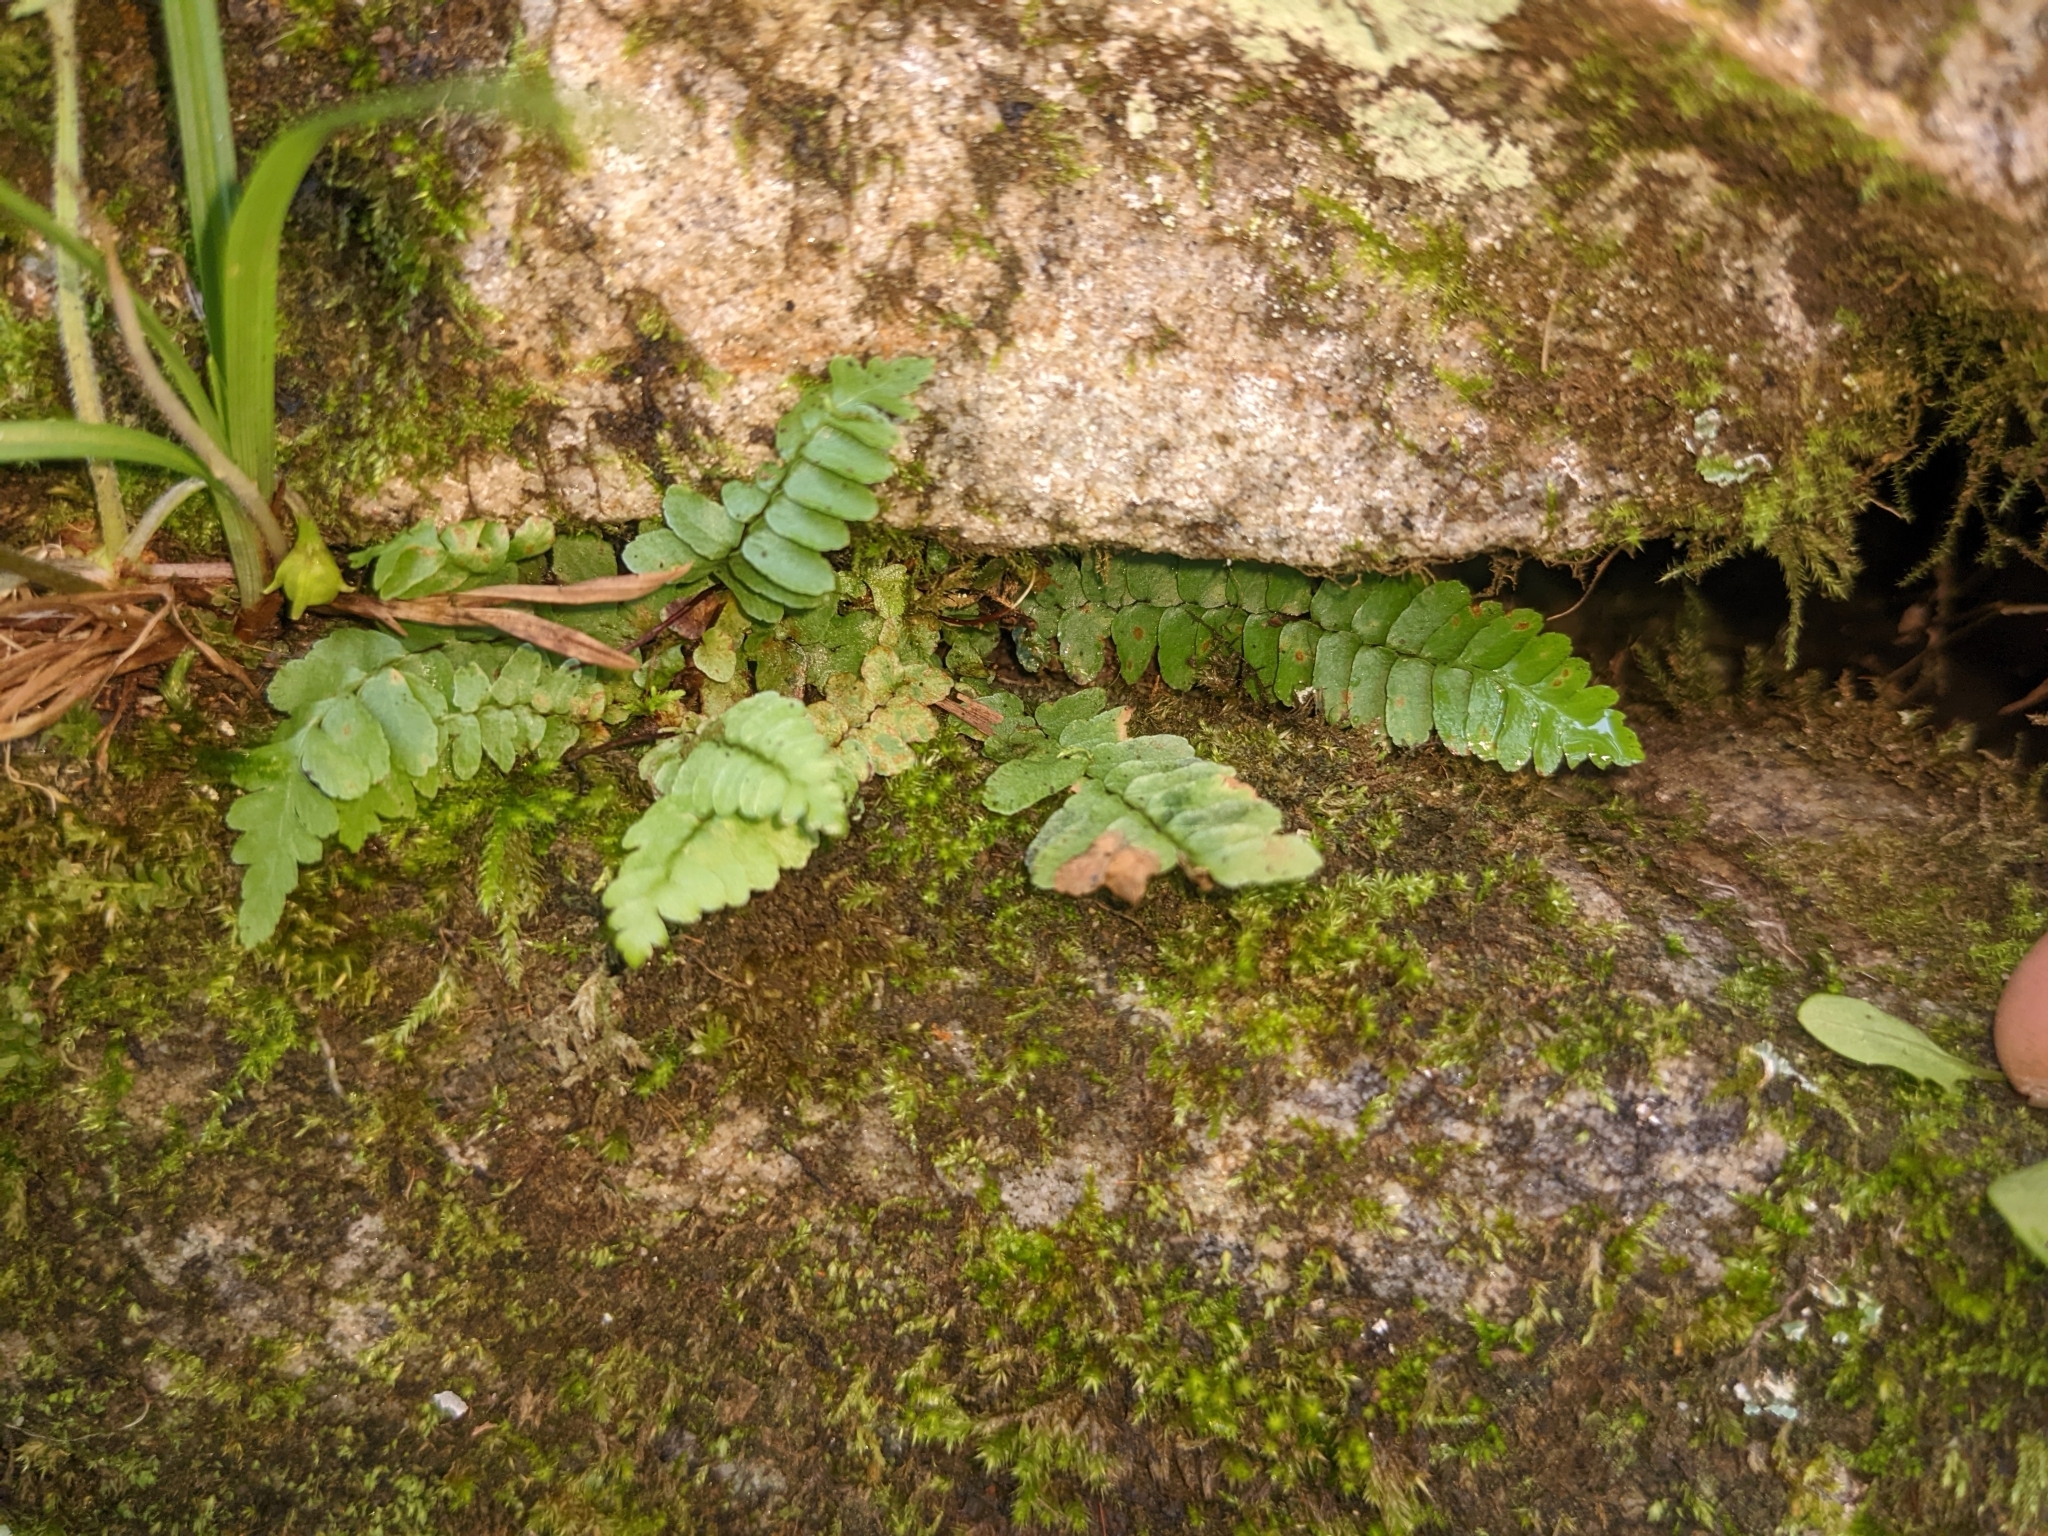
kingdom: Plantae
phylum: Tracheophyta
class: Polypodiopsida
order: Polypodiales
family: Aspleniaceae
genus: Asplenium
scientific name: Asplenium platyneuron
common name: Ebony spleenwort
